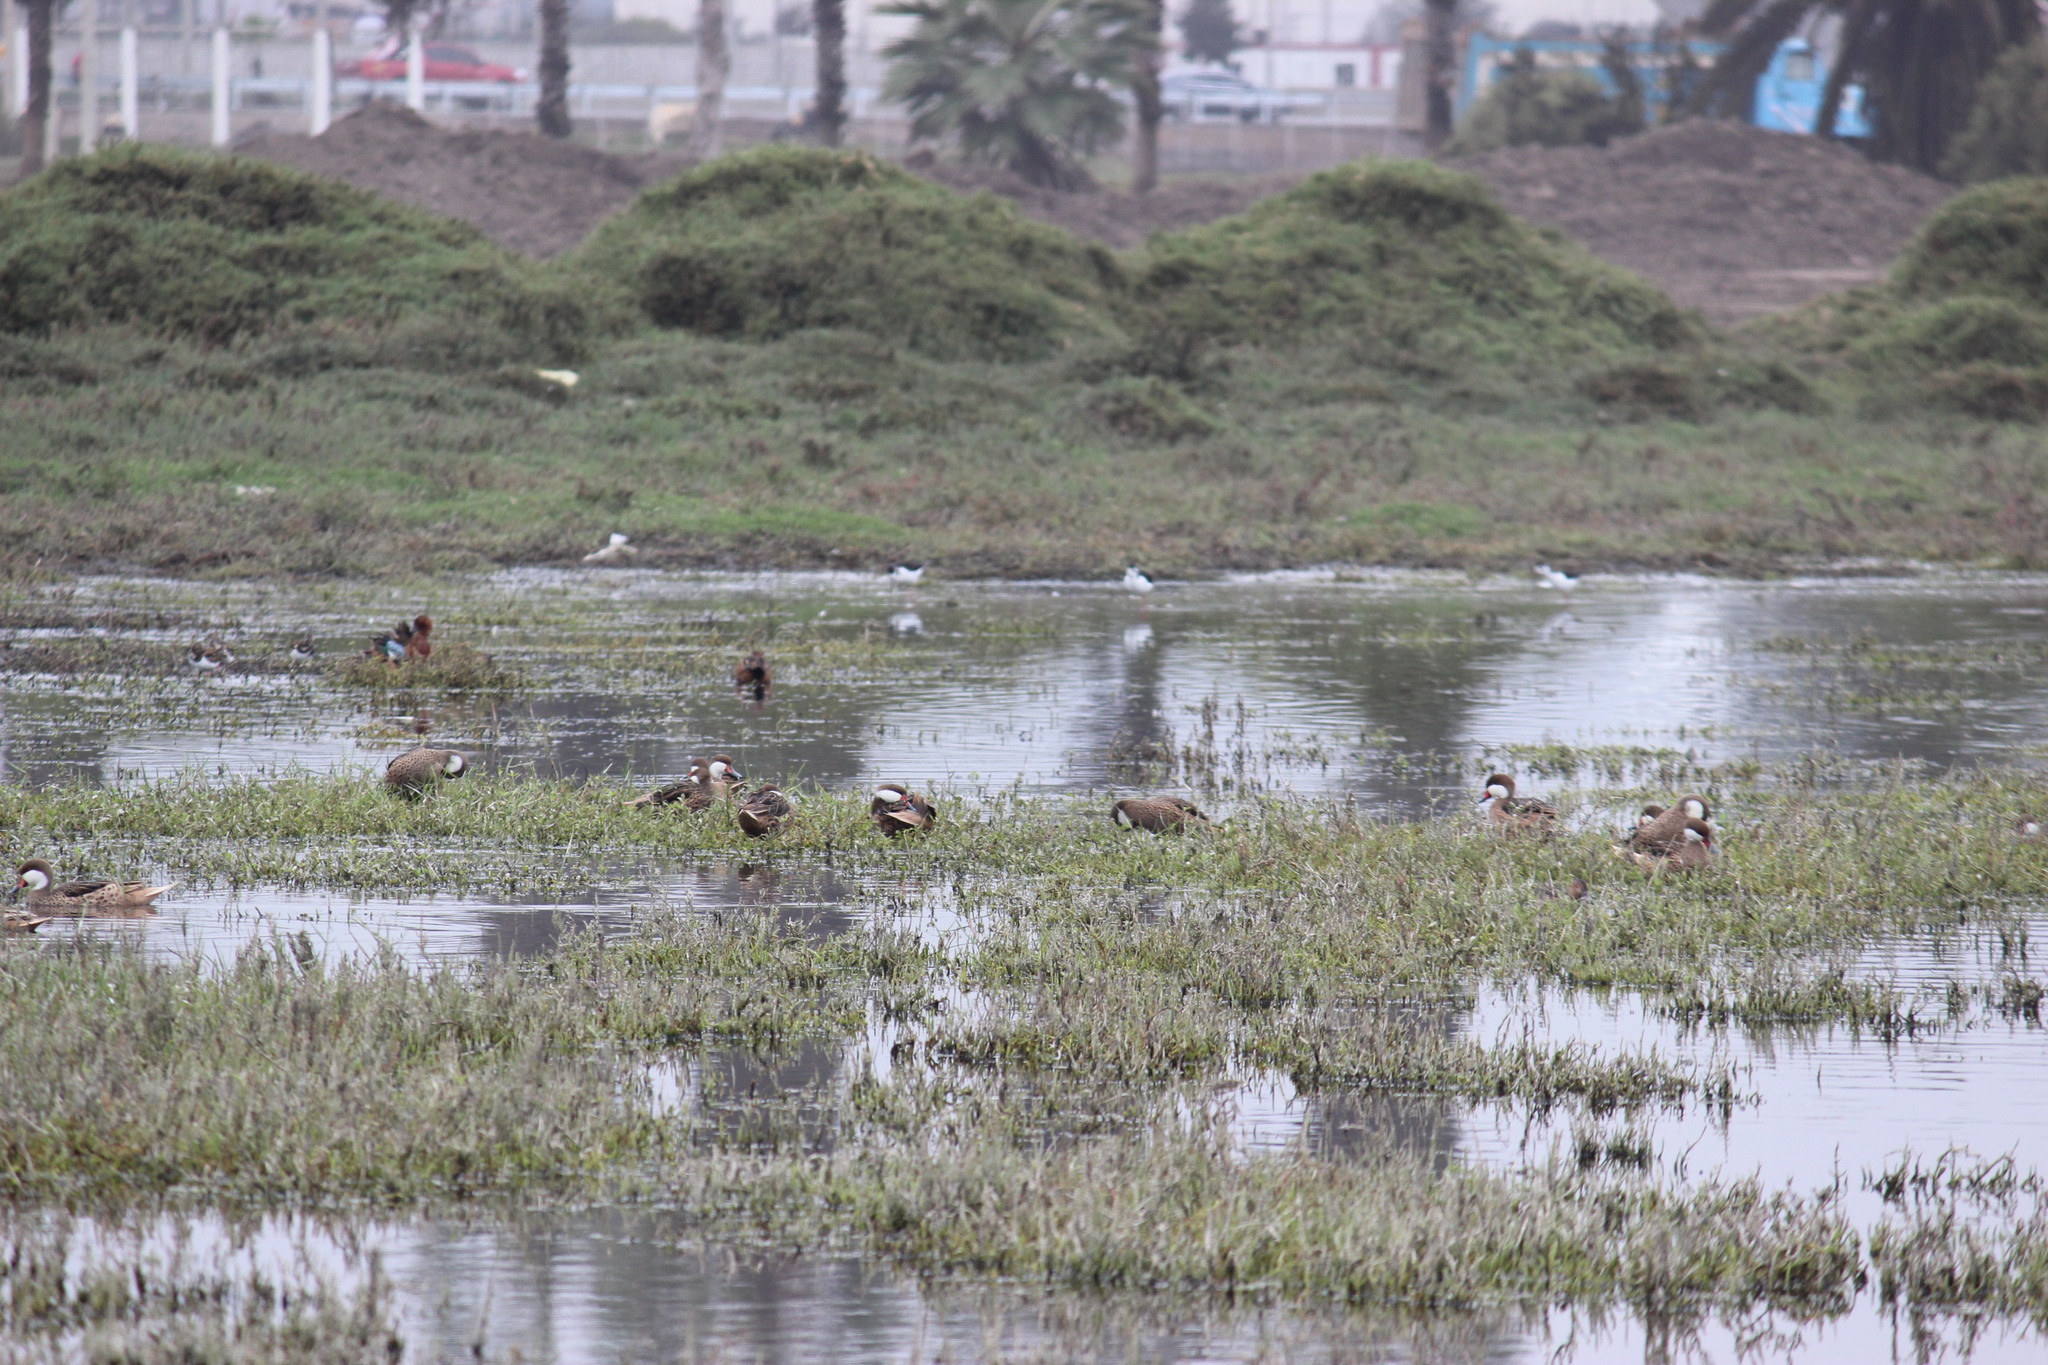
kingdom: Animalia
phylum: Chordata
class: Aves
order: Anseriformes
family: Anatidae
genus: Anas
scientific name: Anas bahamensis
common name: White-cheeked pintail
